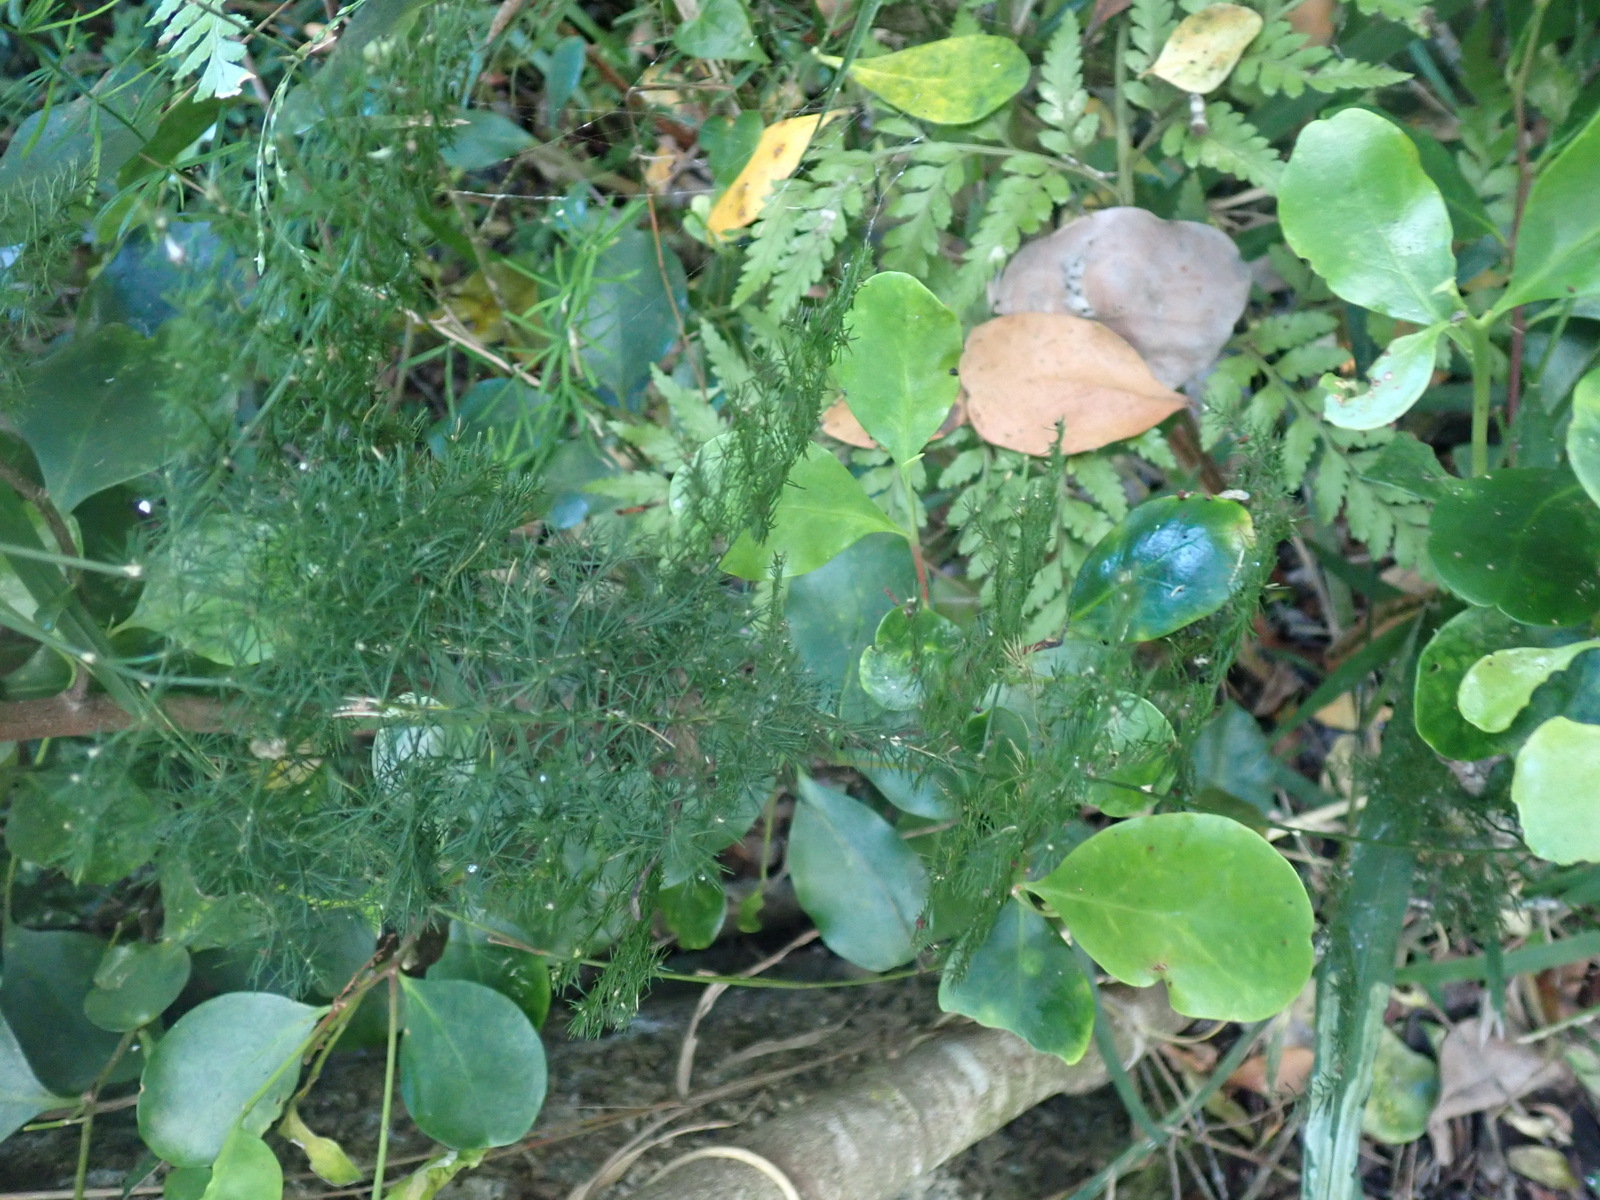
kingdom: Plantae
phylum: Tracheophyta
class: Liliopsida
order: Asparagales
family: Asparagaceae
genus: Asparagus
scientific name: Asparagus setaceus
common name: Common asparagus fern
